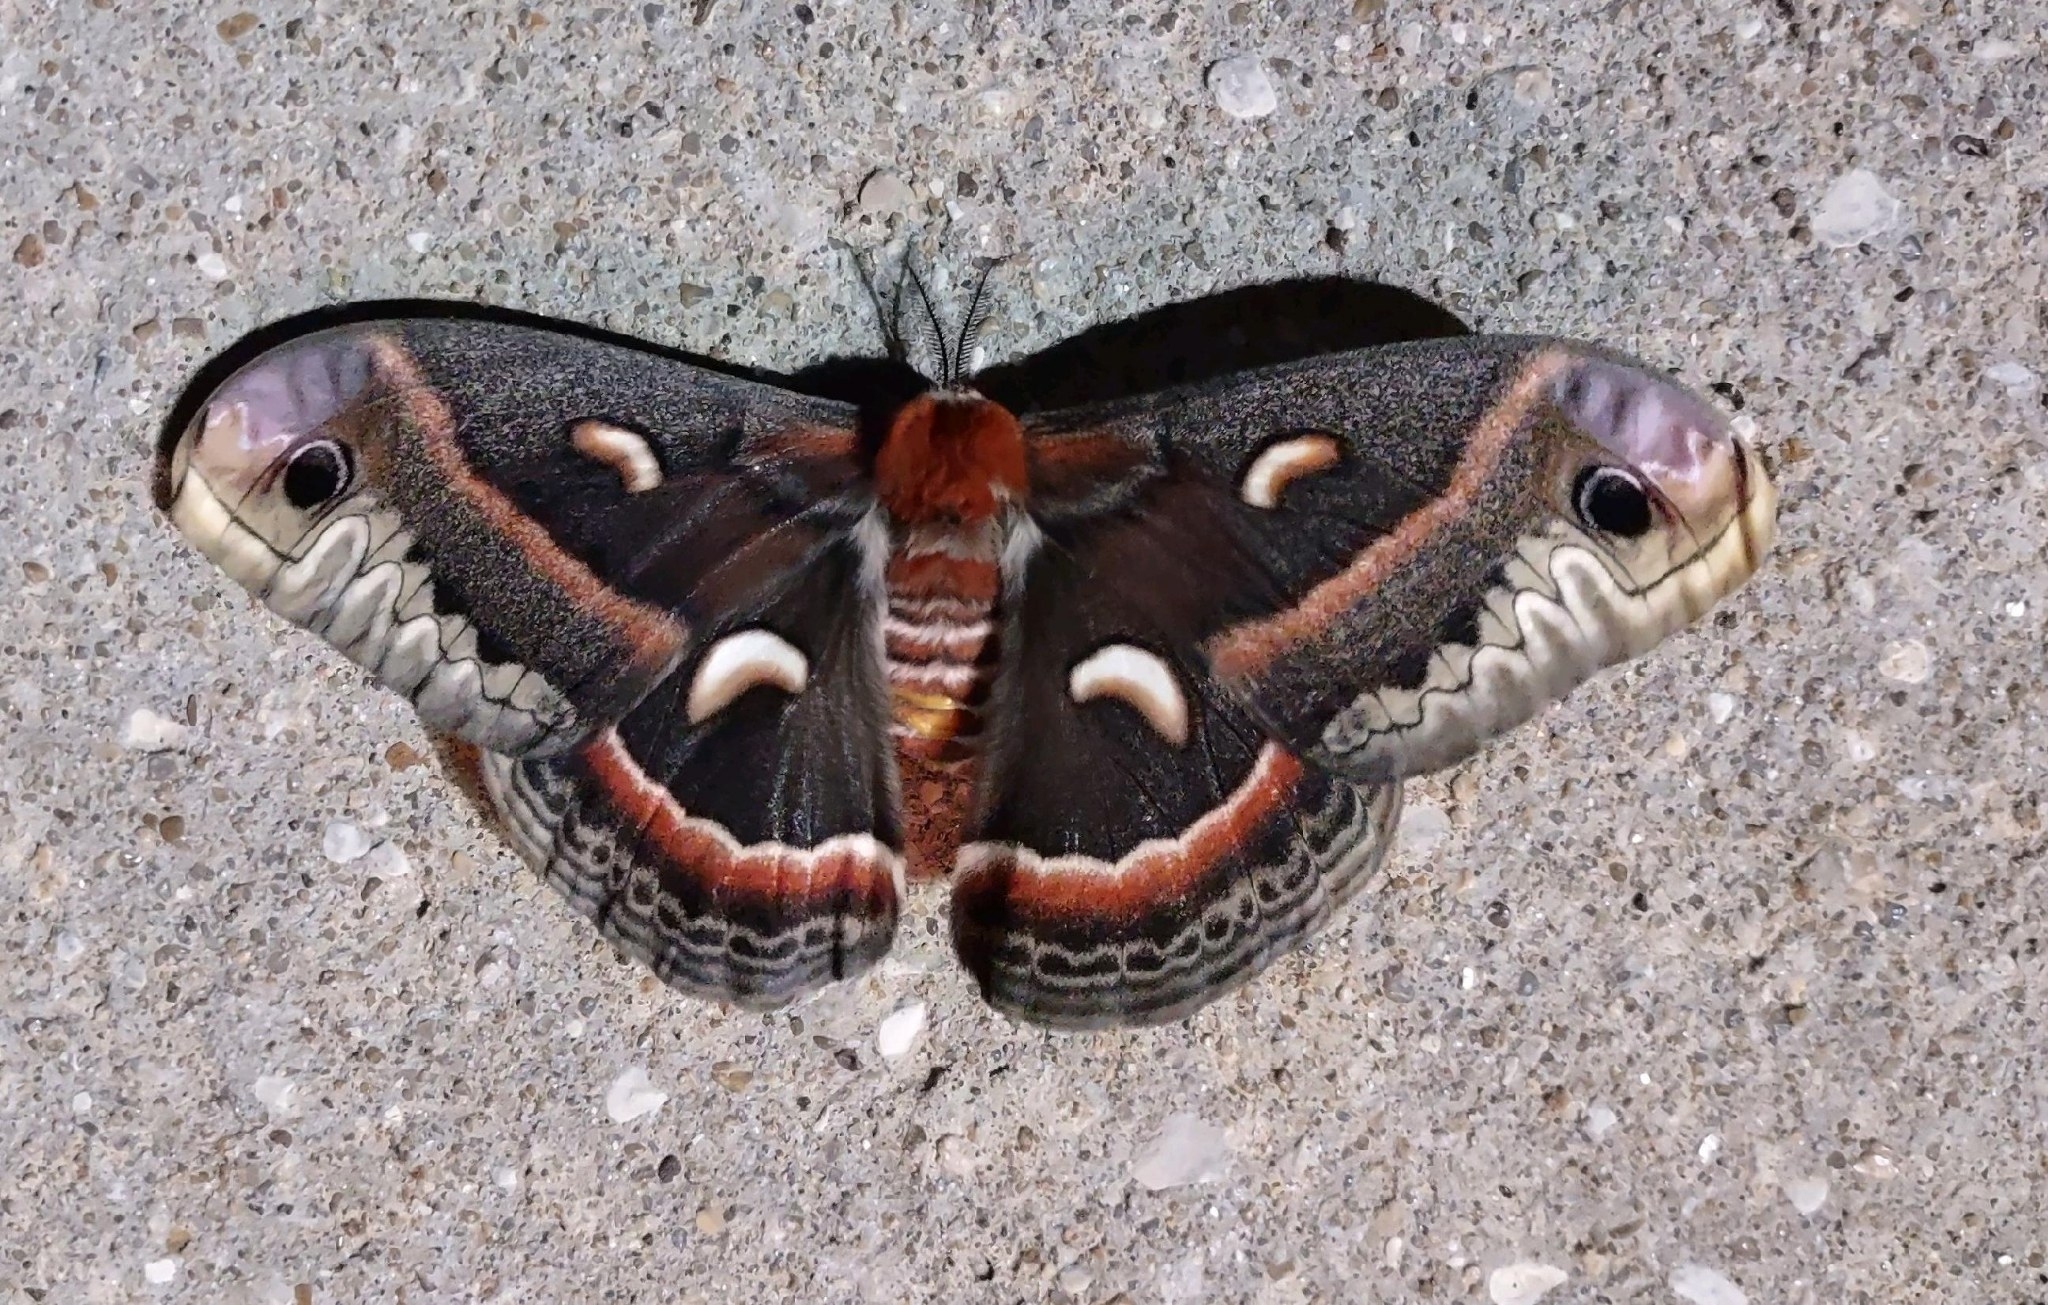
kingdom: Animalia
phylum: Arthropoda
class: Insecta
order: Lepidoptera
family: Saturniidae
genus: Hyalophora
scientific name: Hyalophora cecropia
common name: Cecropia silkmoth
